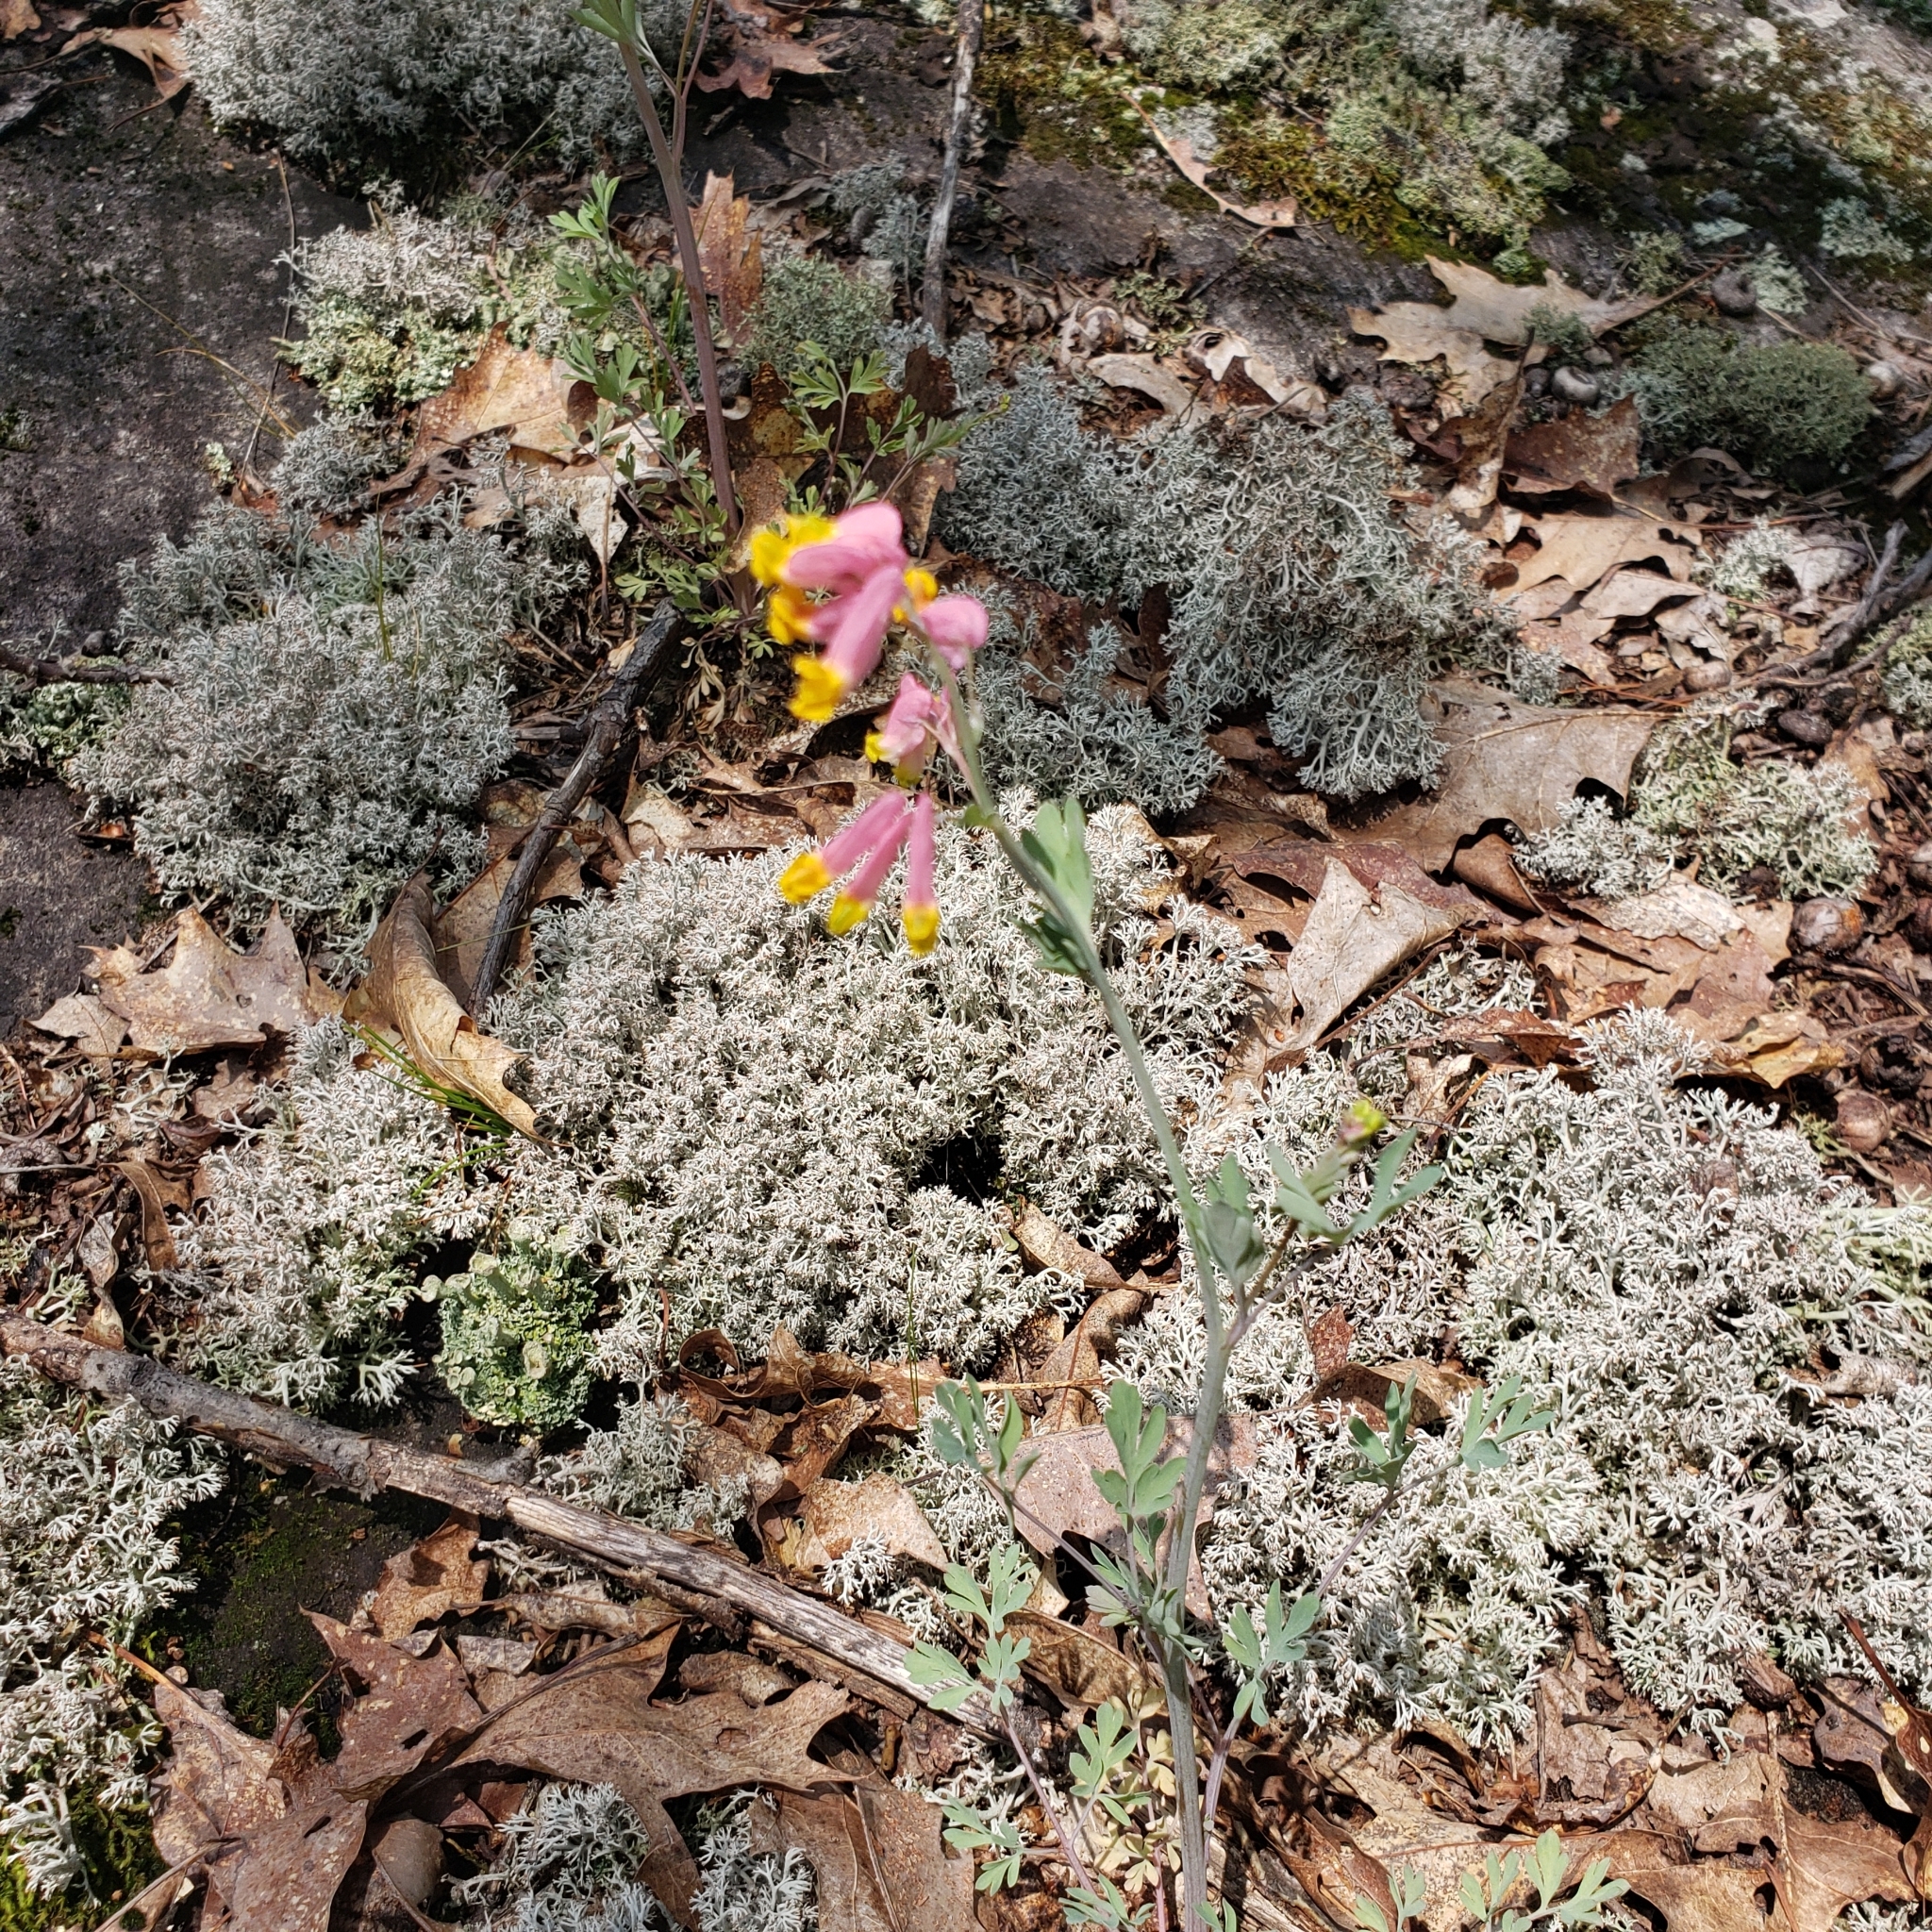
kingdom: Plantae
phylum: Tracheophyta
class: Magnoliopsida
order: Ranunculales
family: Papaveraceae
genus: Capnoides
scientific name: Capnoides sempervirens
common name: Rock harlequin
